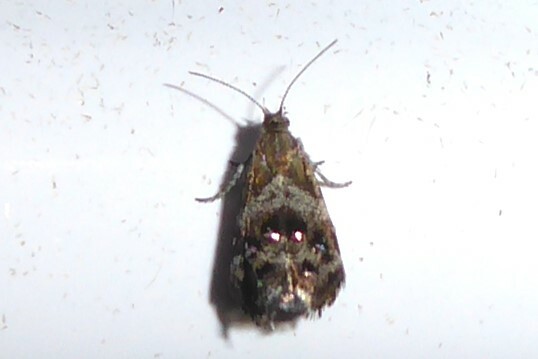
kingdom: Animalia
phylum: Arthropoda
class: Insecta
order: Lepidoptera
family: Choreutidae
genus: Tebenna
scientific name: Tebenna micalis
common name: Vagrant twitcher
